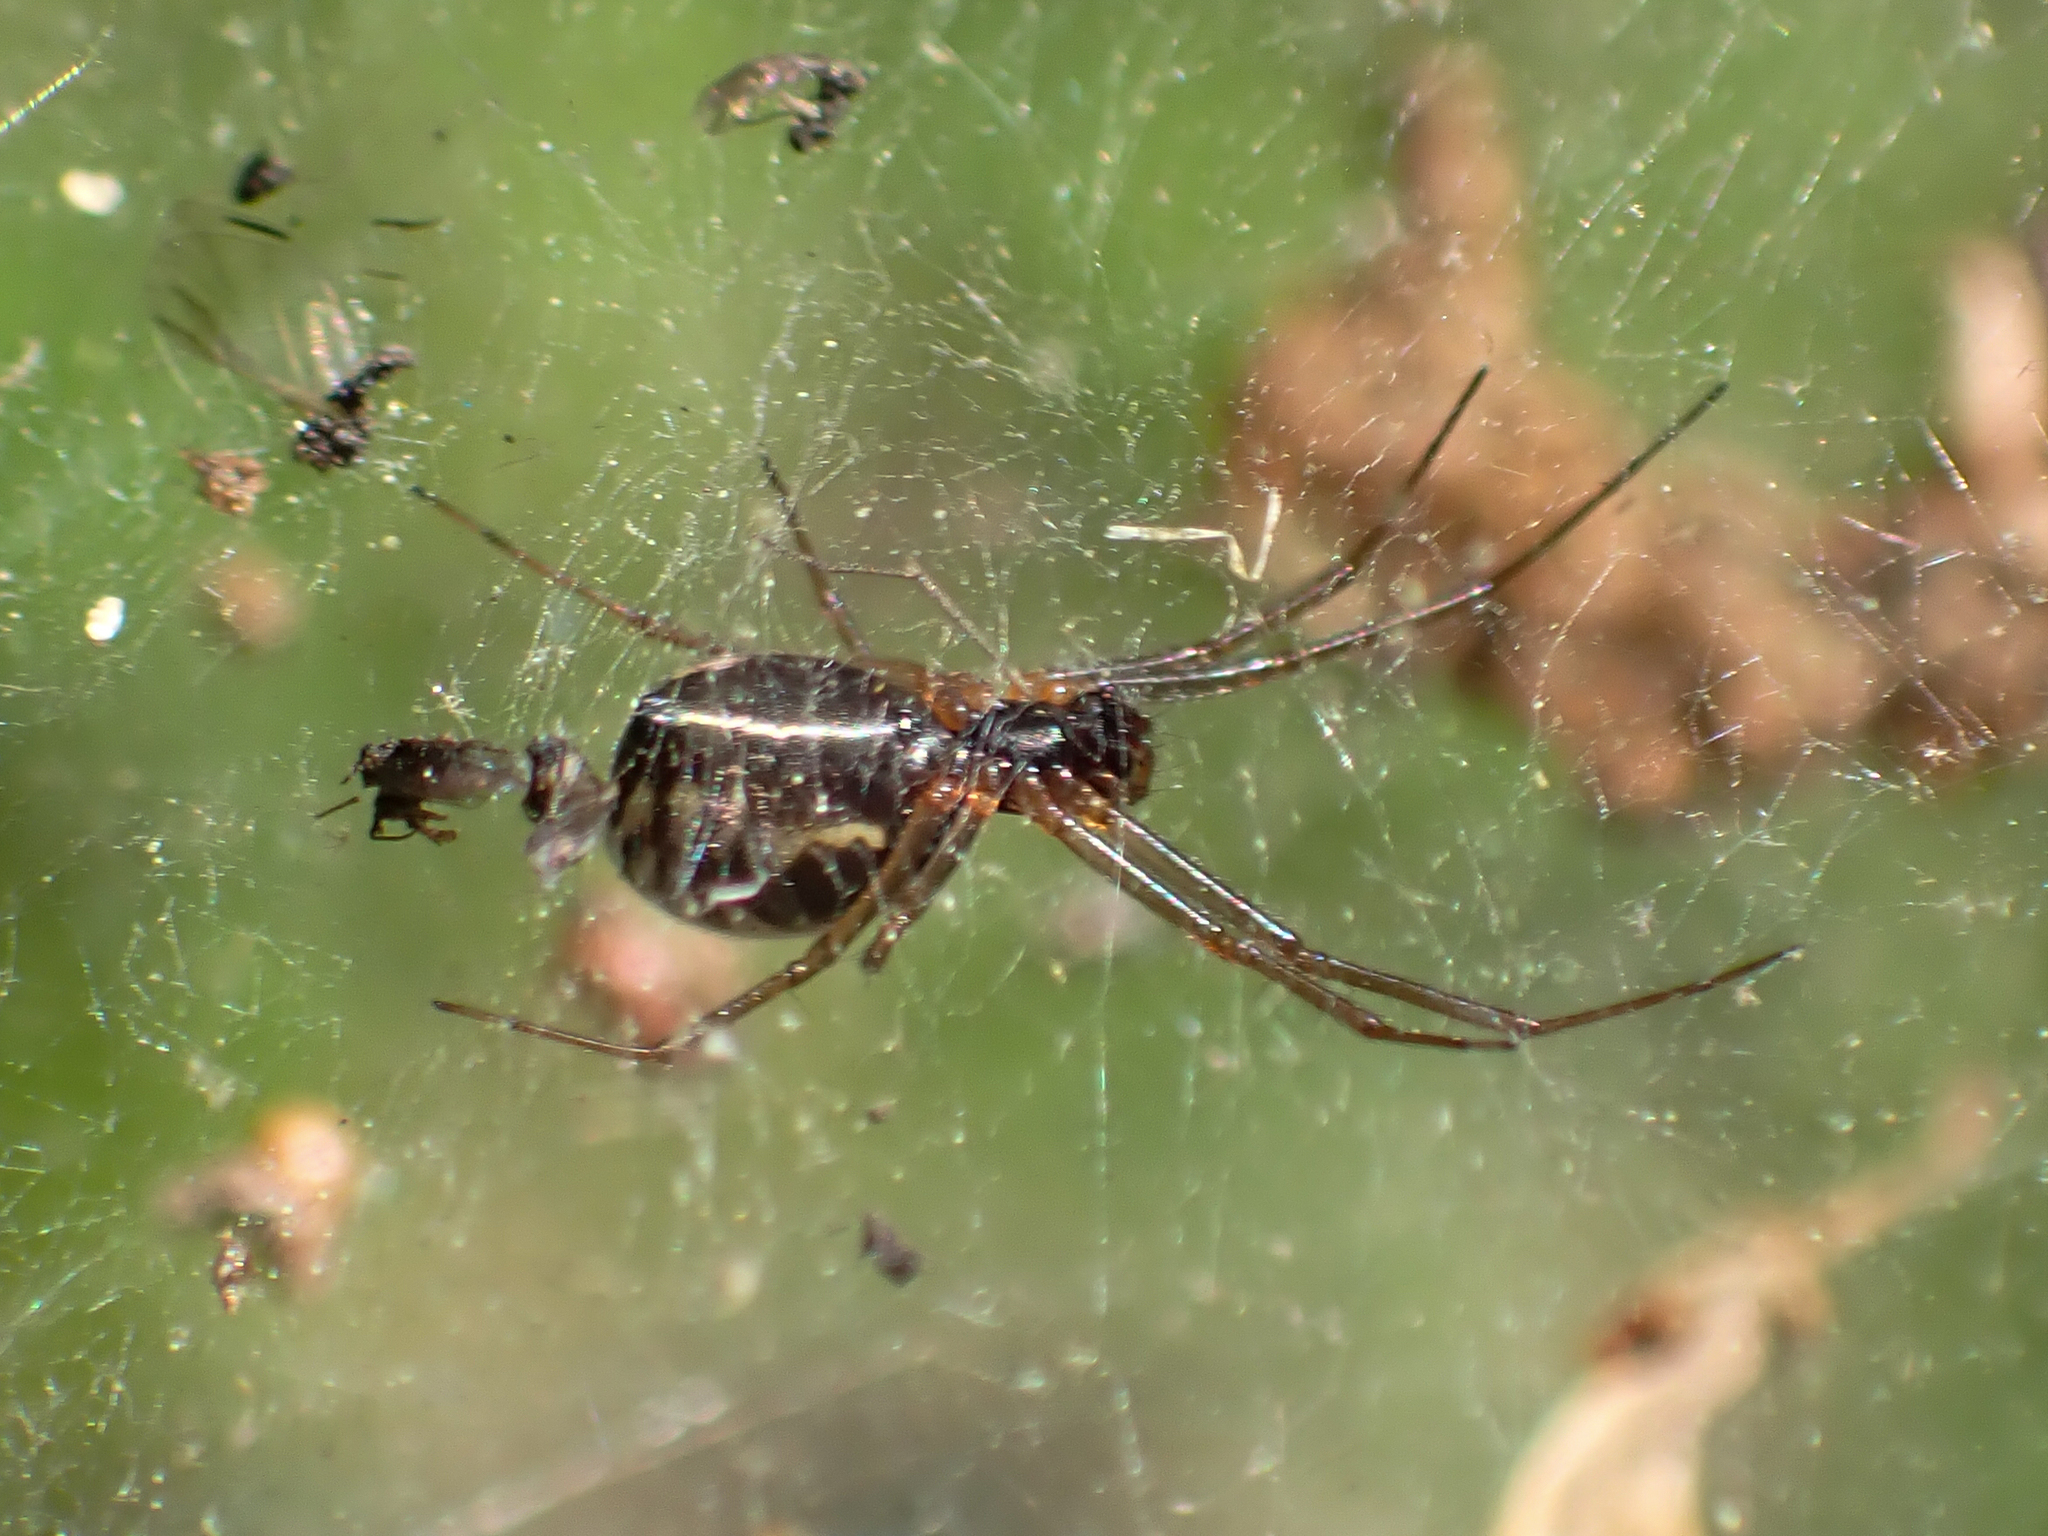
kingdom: Animalia
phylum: Arthropoda
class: Arachnida
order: Araneae
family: Linyphiidae
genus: Frontinella
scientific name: Frontinella pyramitela
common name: Bowl-and-doily spider
